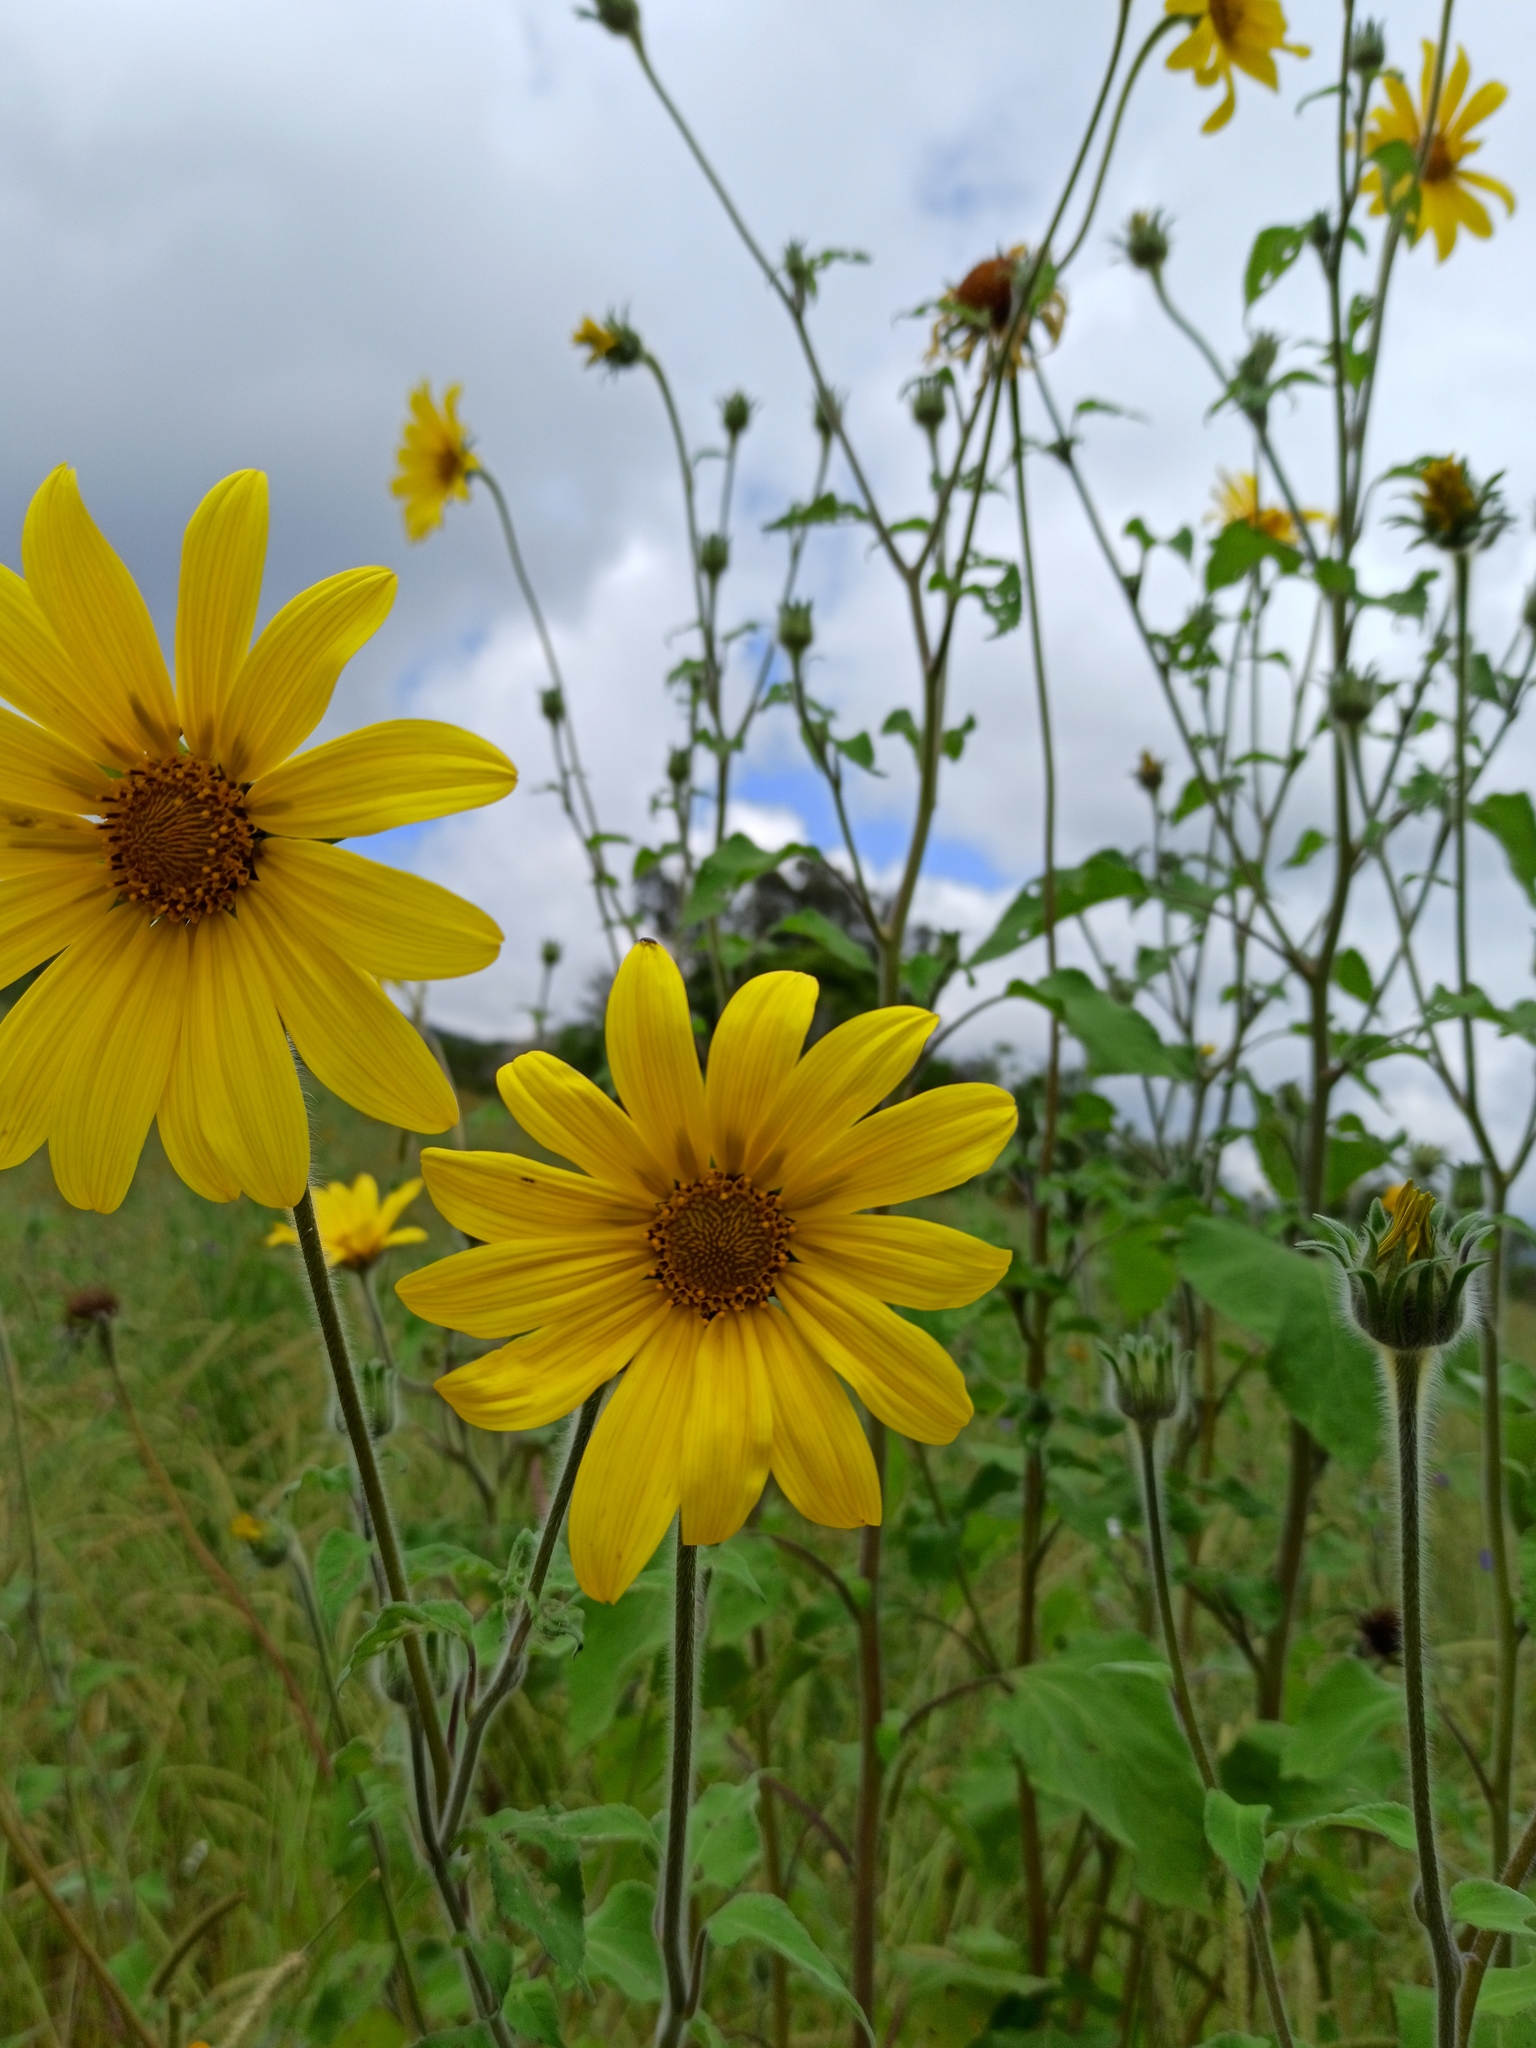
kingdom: Plantae
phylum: Tracheophyta
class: Magnoliopsida
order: Asterales
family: Asteraceae
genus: Tithonia
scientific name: Tithonia tubaeformis
